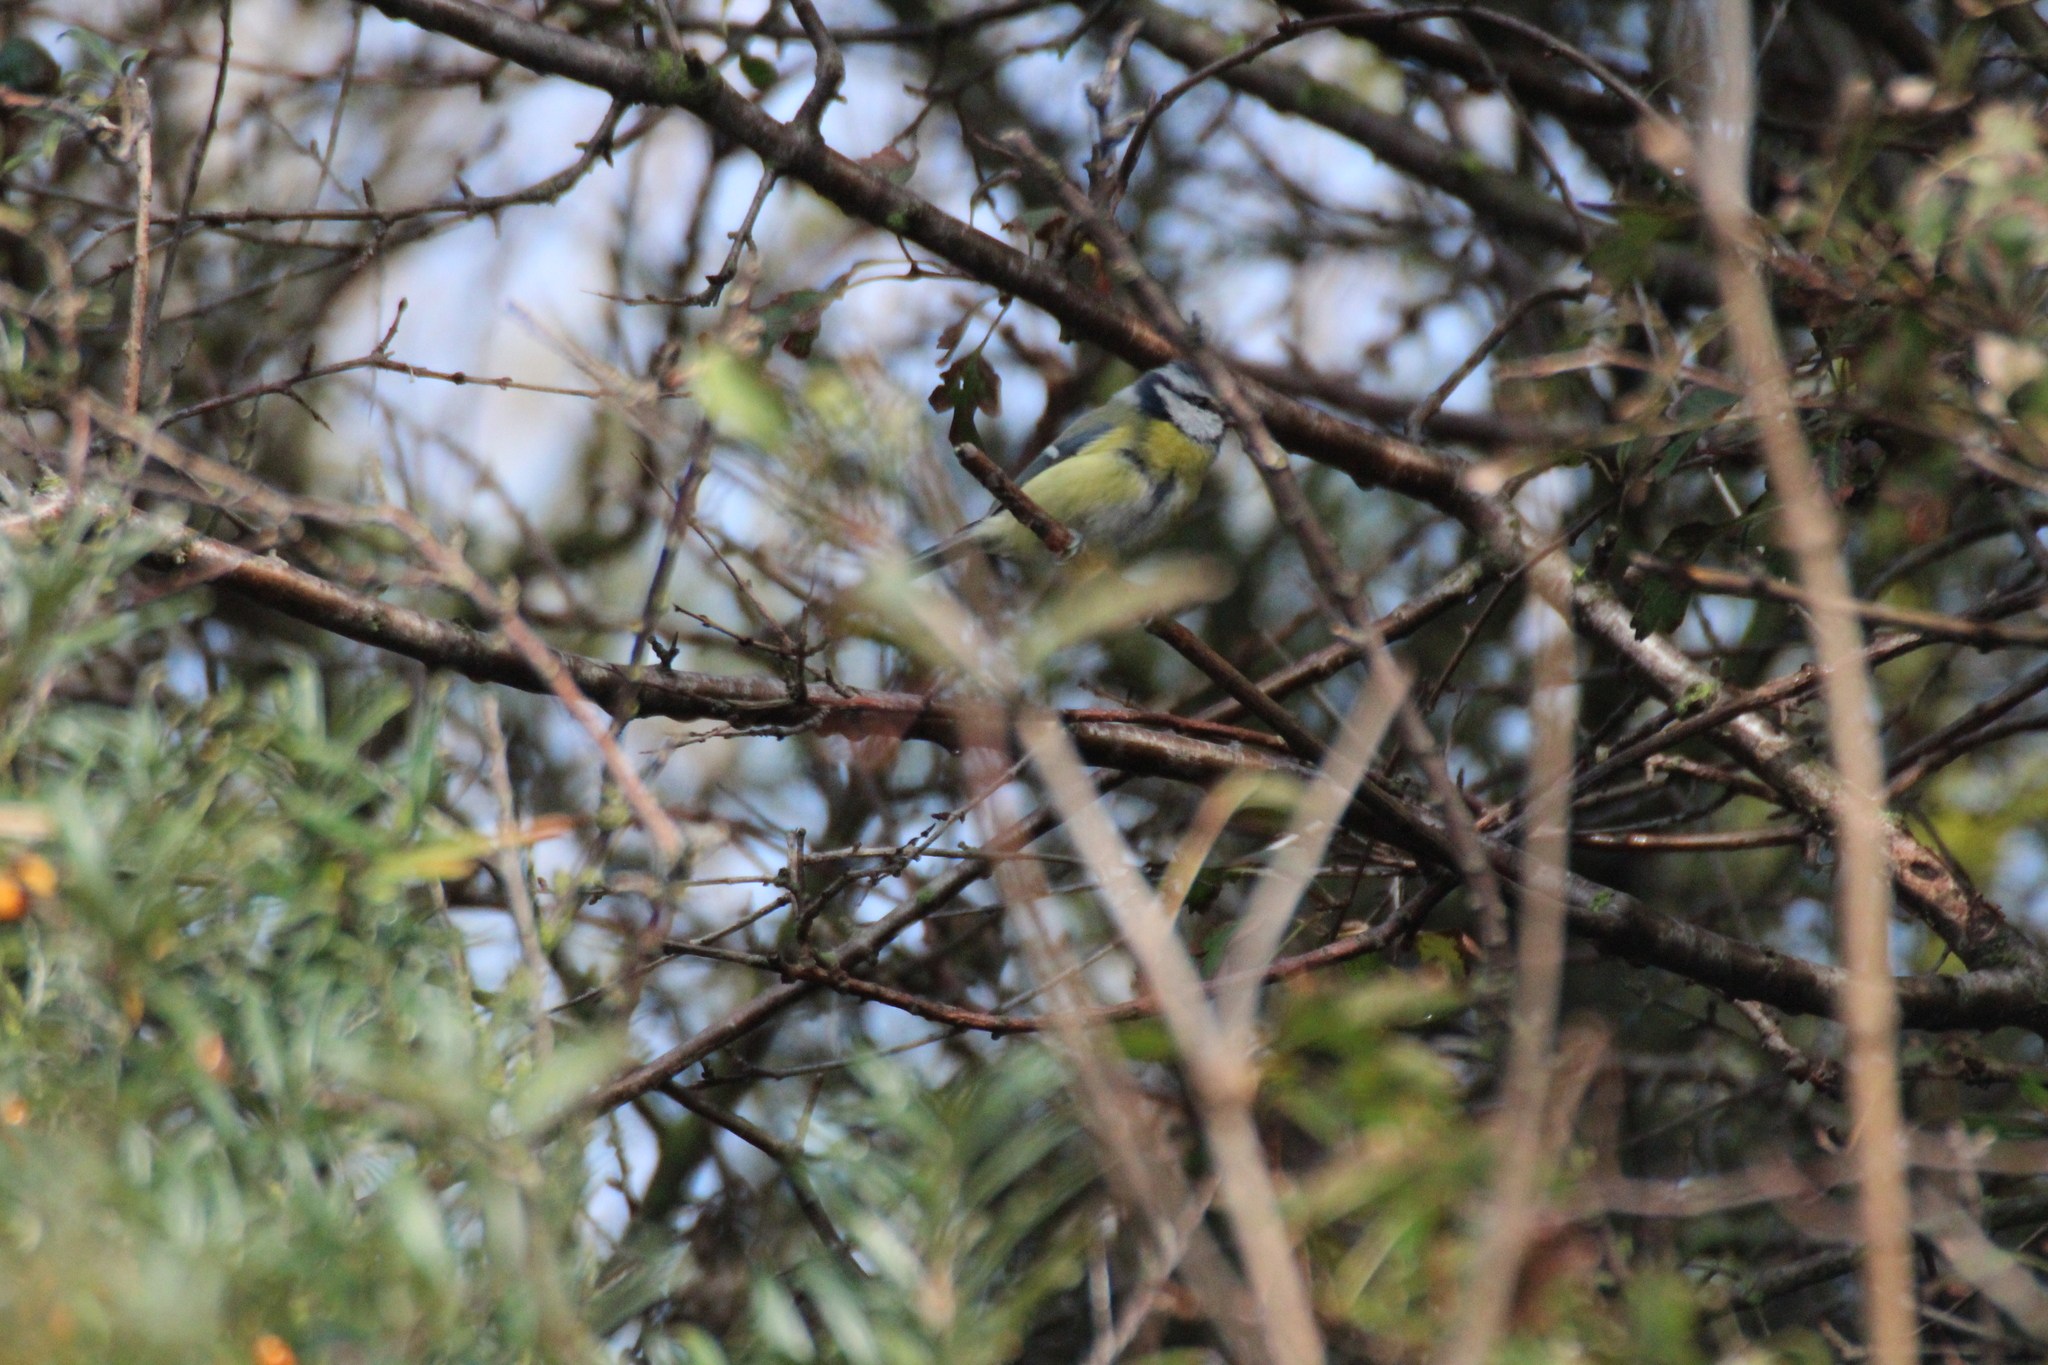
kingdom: Animalia
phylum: Chordata
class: Aves
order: Passeriformes
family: Paridae
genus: Cyanistes
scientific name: Cyanistes caeruleus
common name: Eurasian blue tit
